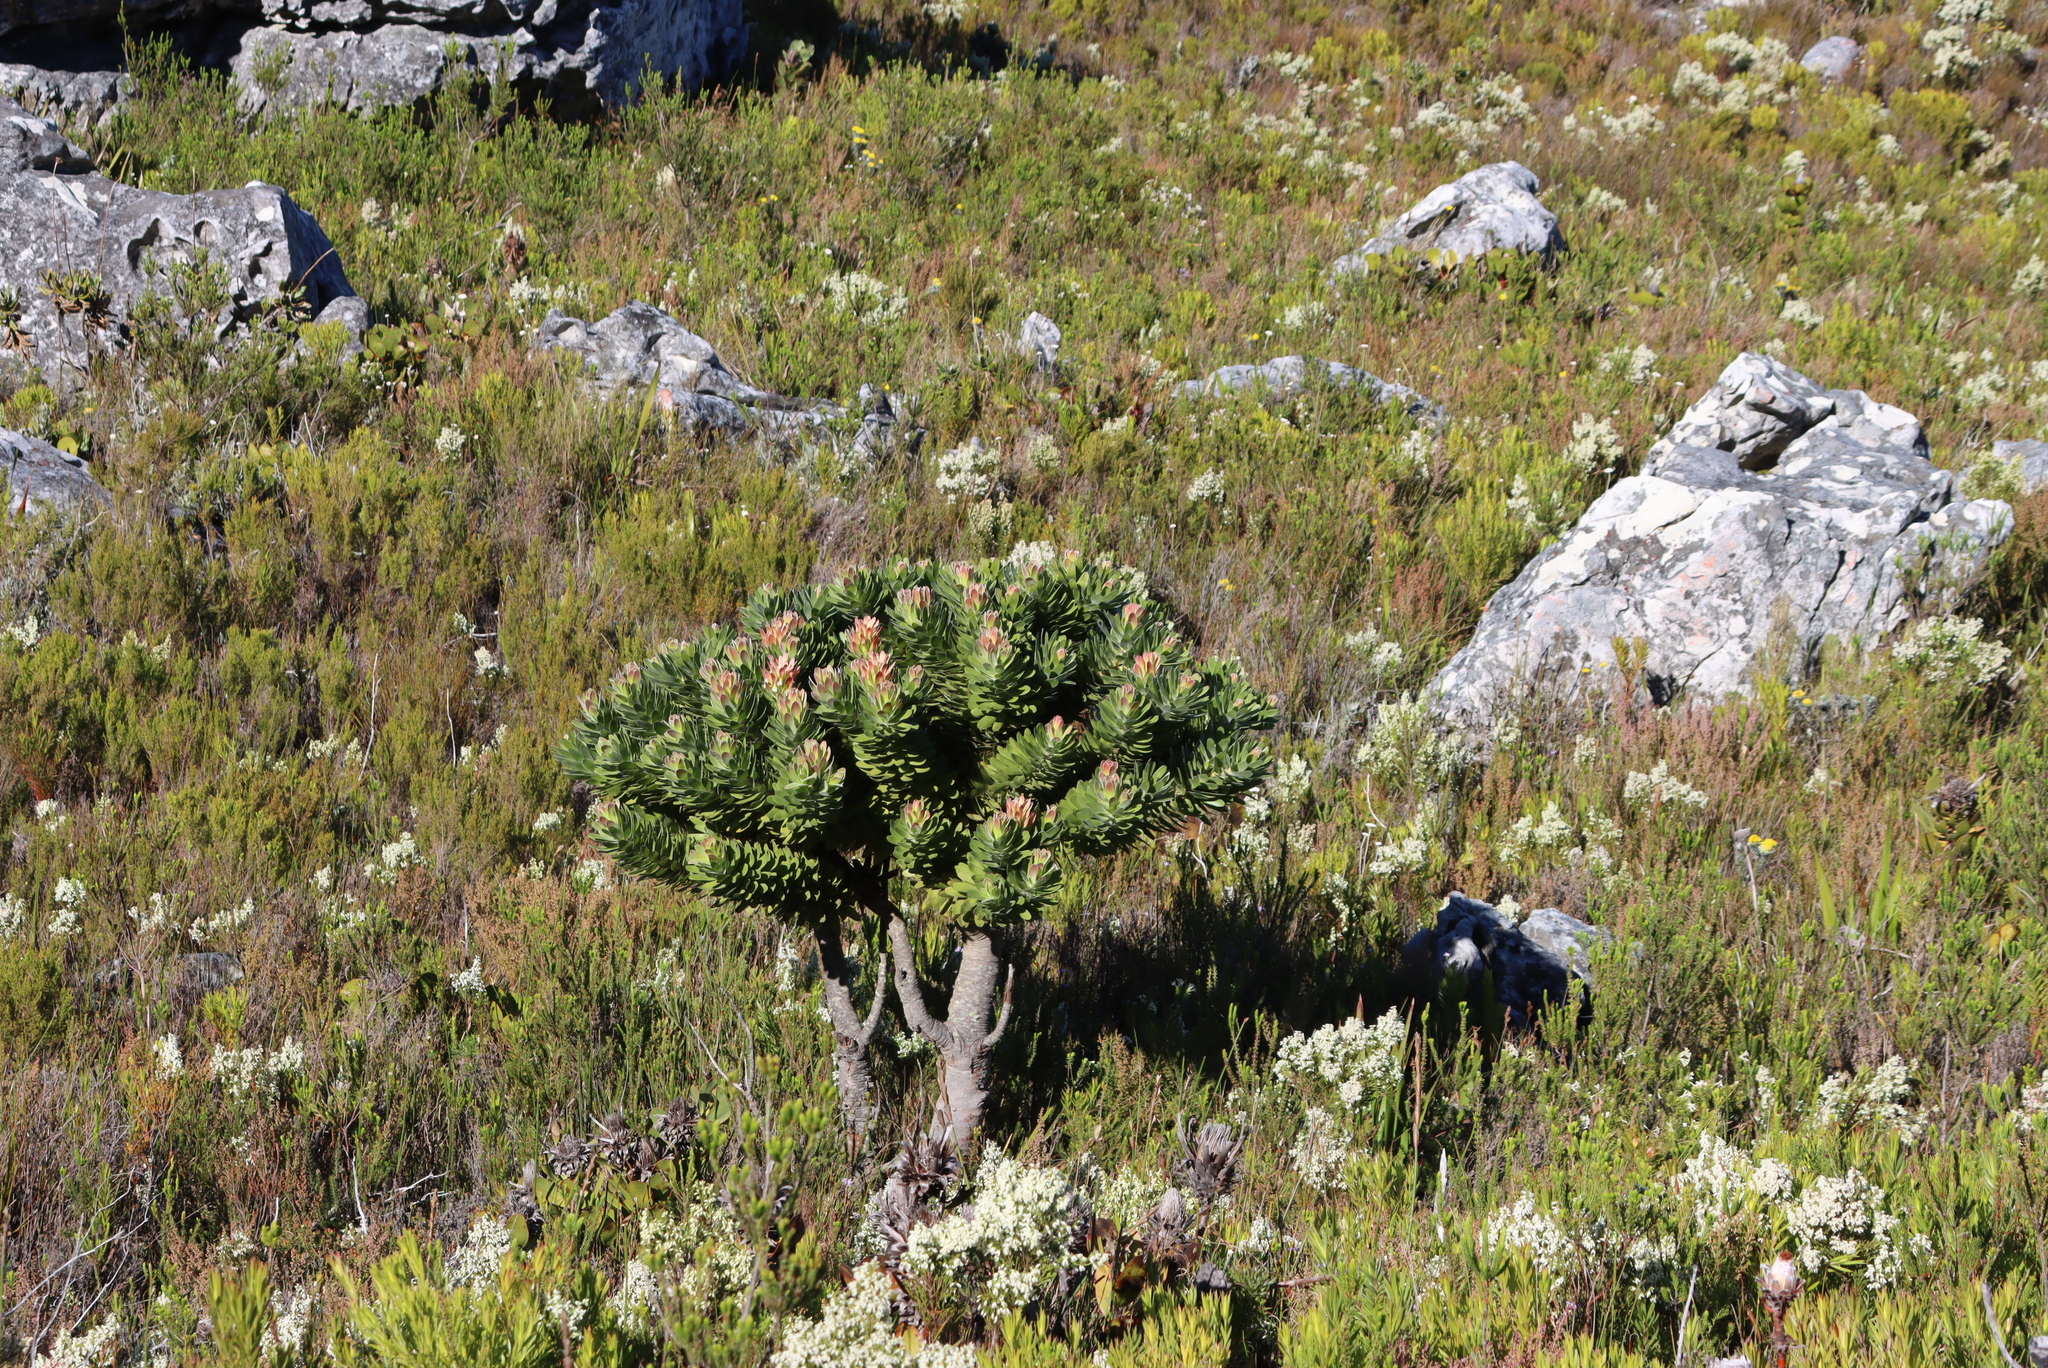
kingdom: Plantae
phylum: Tracheophyta
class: Magnoliopsida
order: Proteales
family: Proteaceae
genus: Mimetes
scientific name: Mimetes fimbriifolius
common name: Fringed bottlebrush
